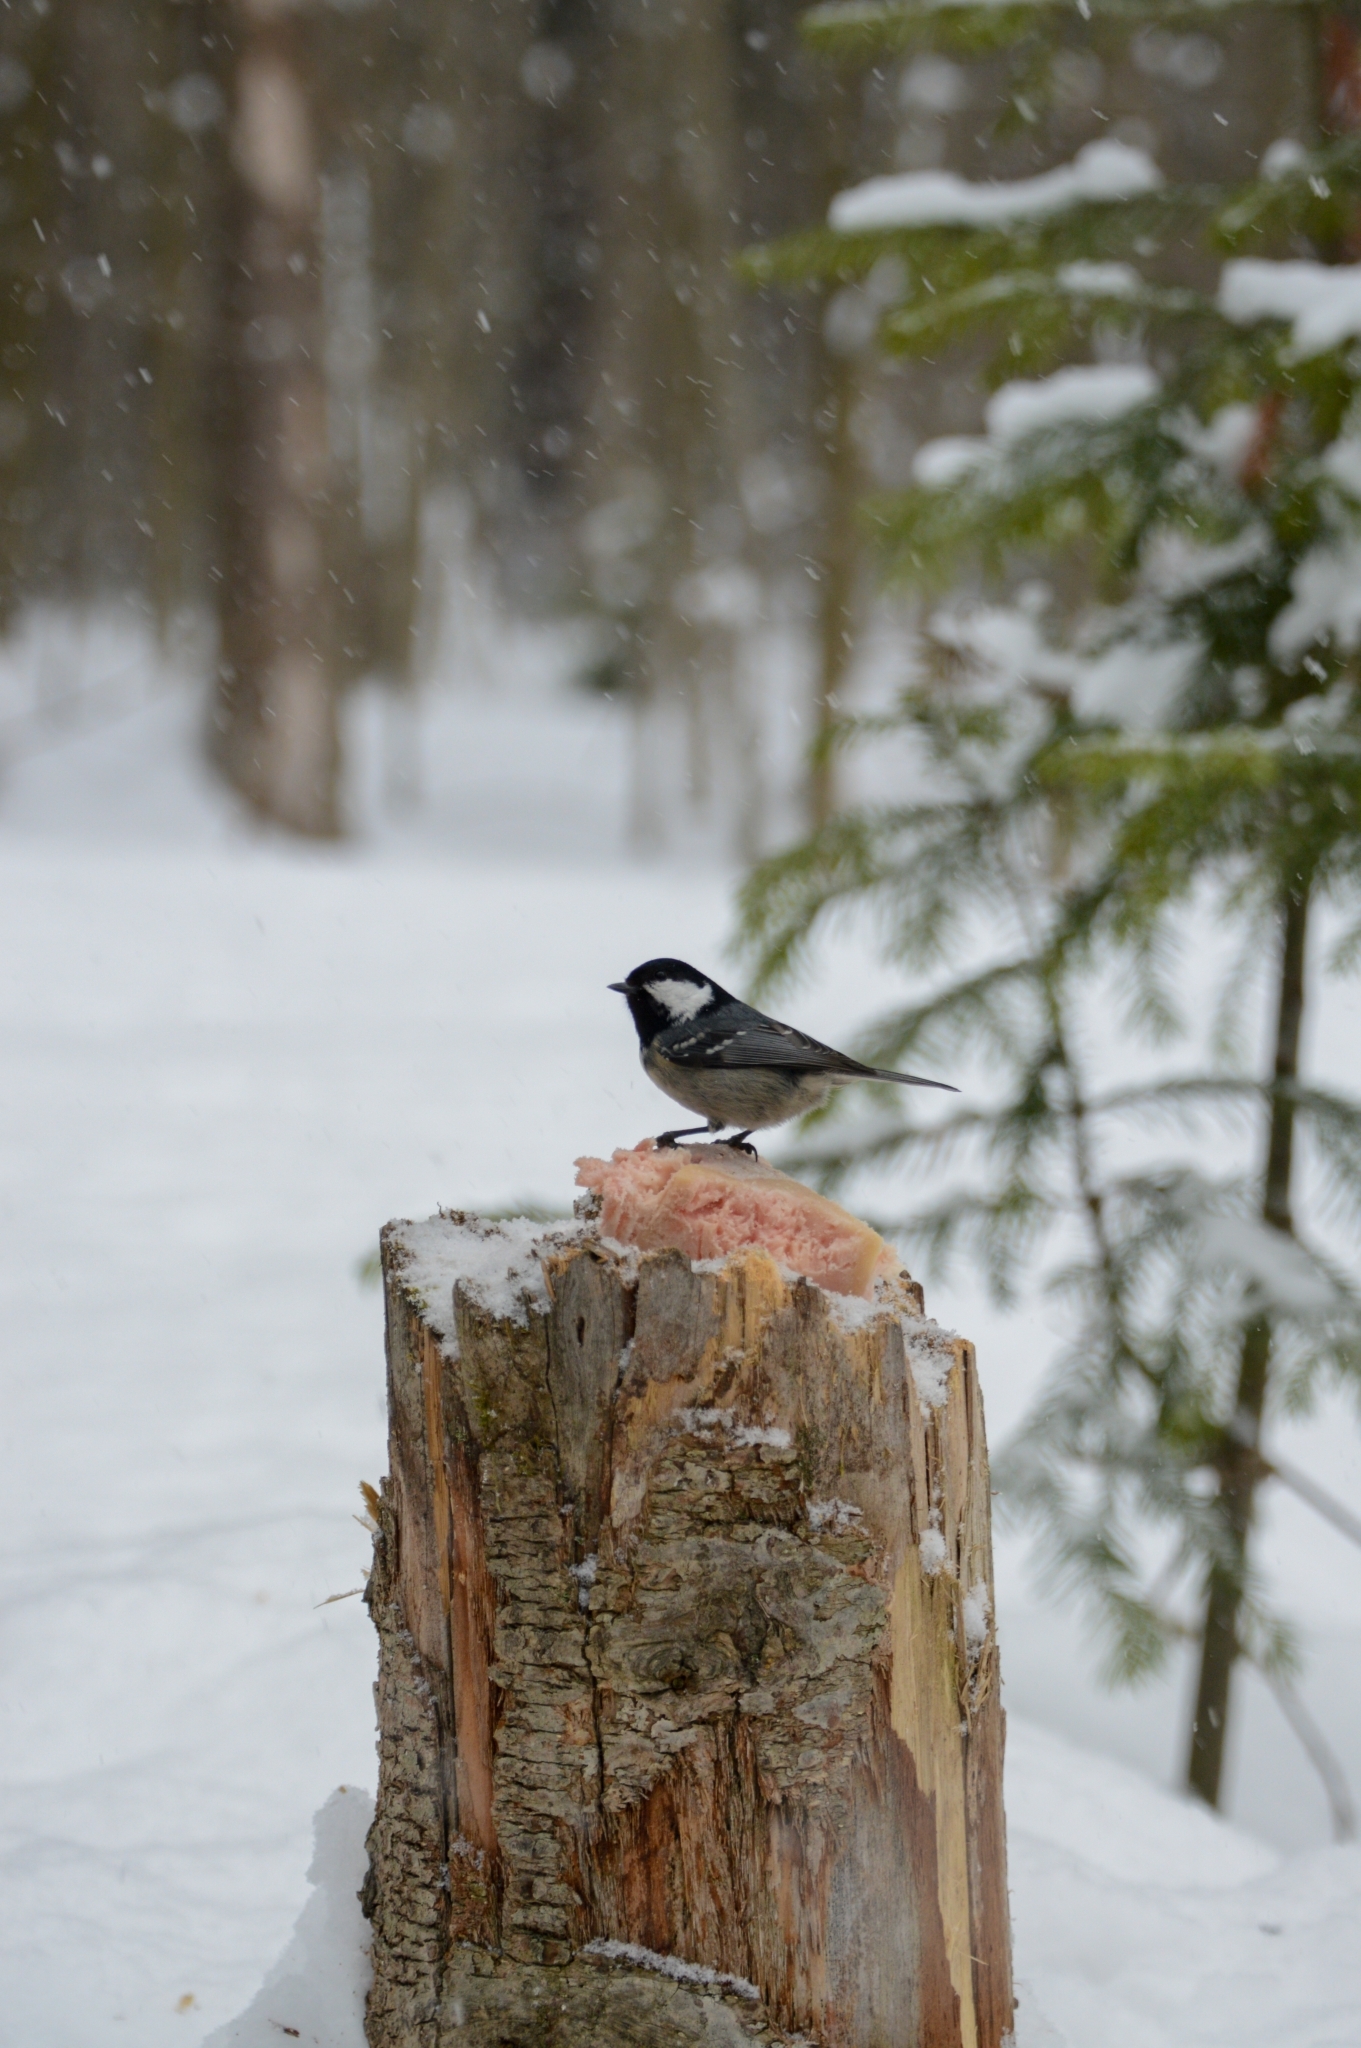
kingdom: Animalia
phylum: Chordata
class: Aves
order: Passeriformes
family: Paridae
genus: Periparus
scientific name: Periparus ater
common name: Coal tit
